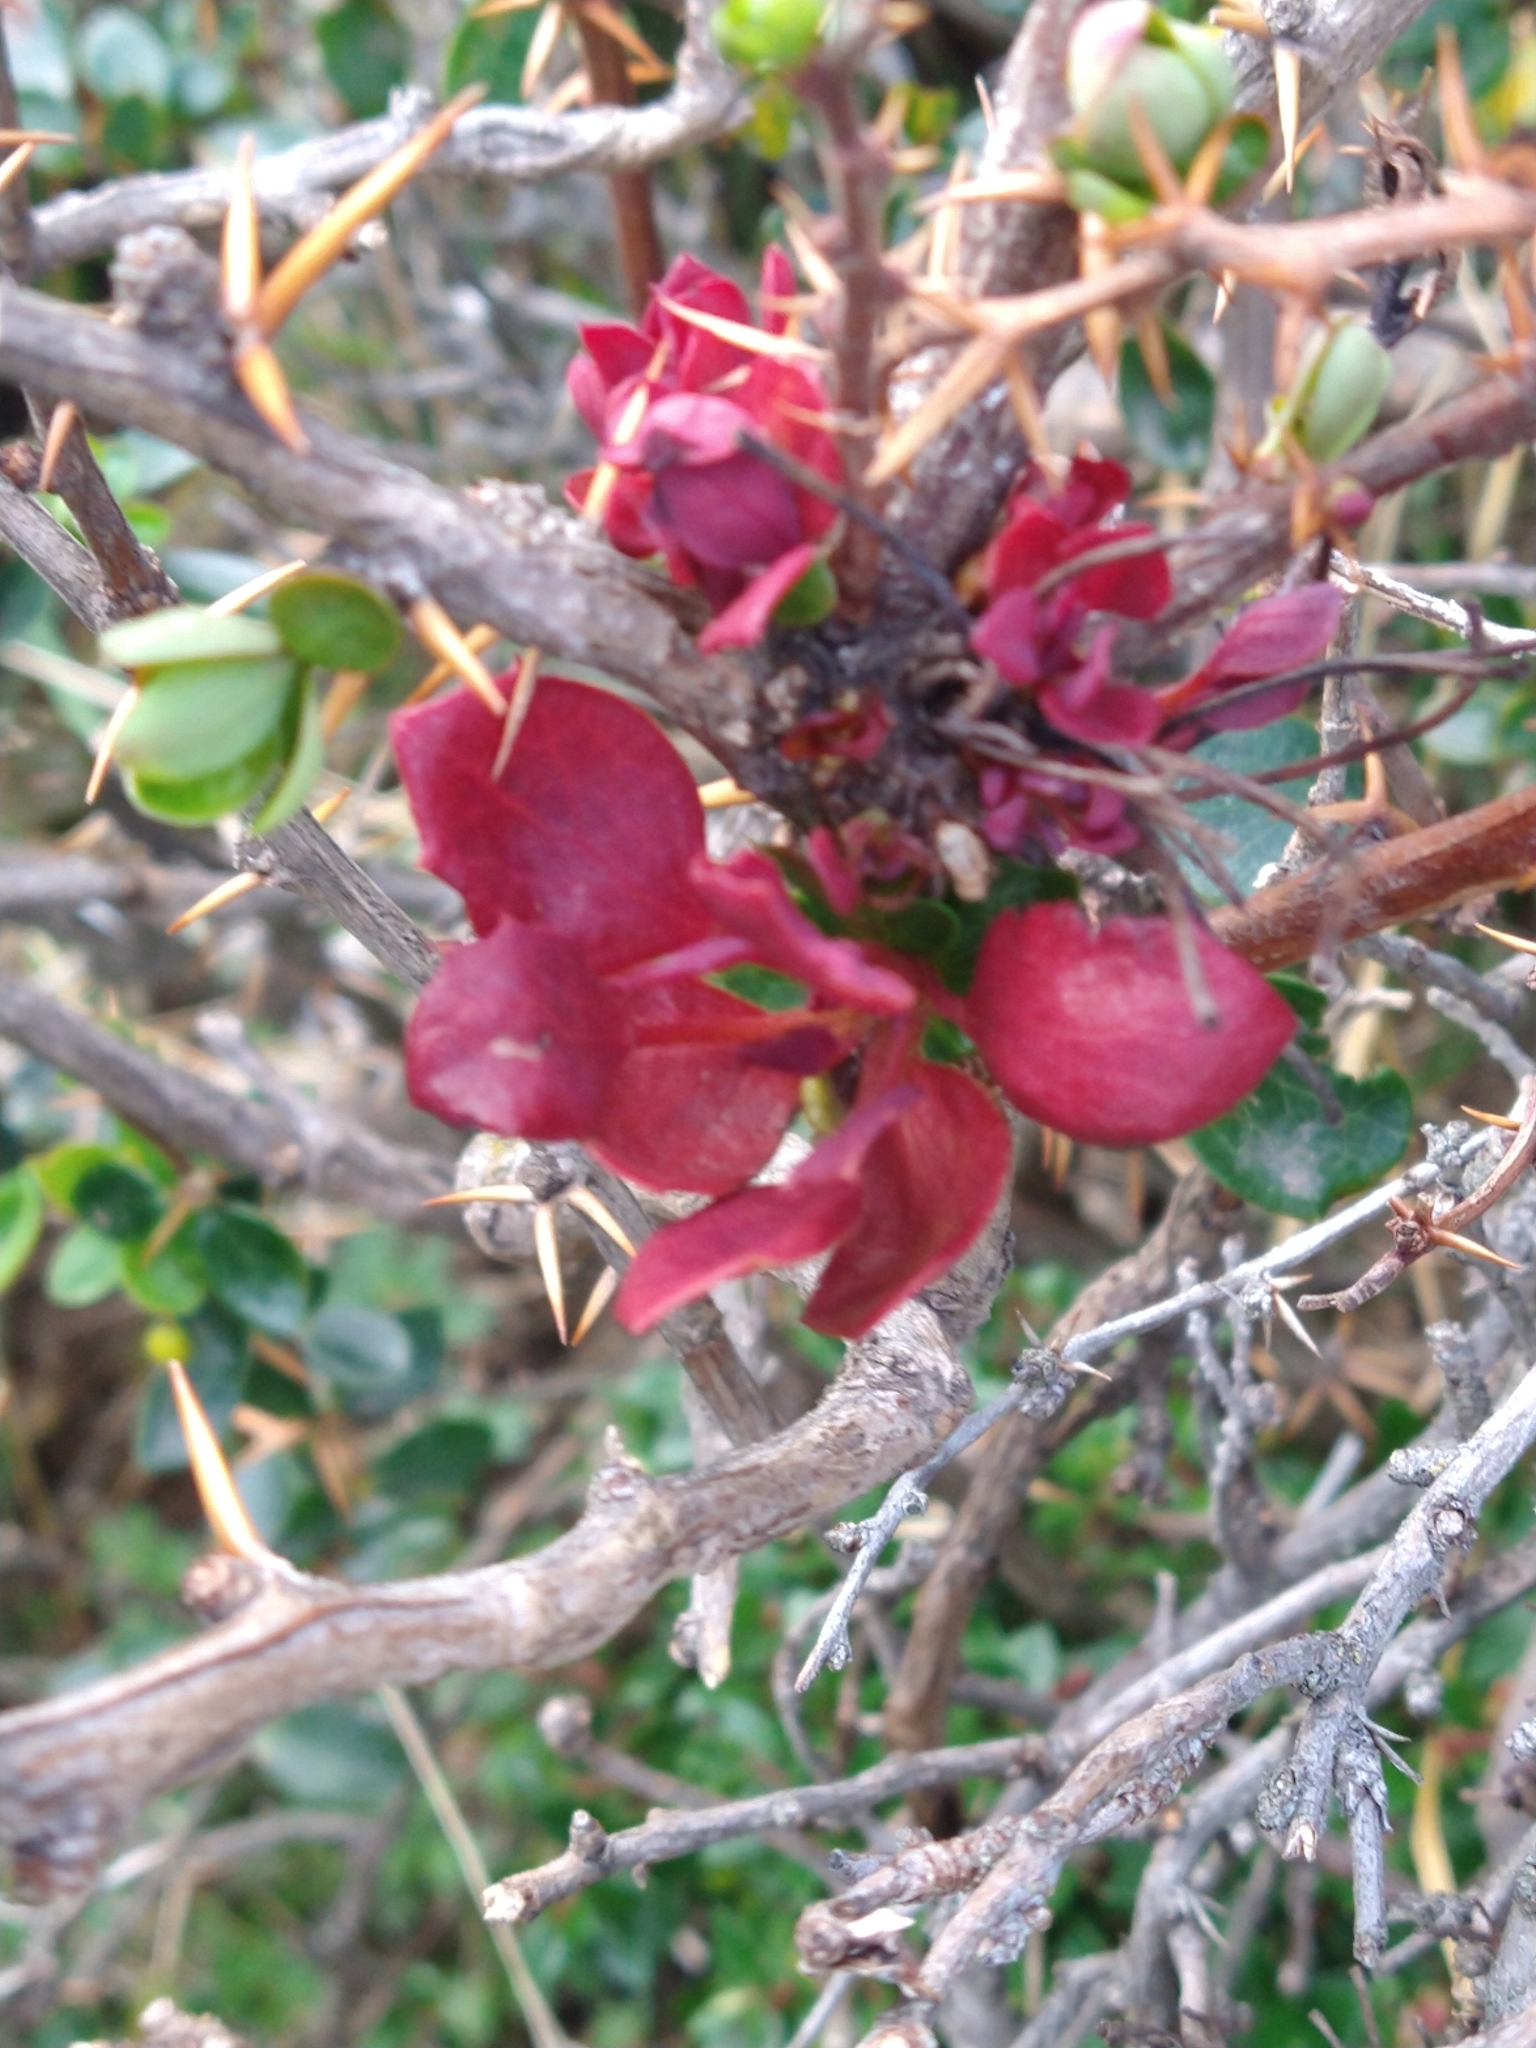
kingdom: Fungi
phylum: Basidiomycota
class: Pucciniomycetes
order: Pucciniales
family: Pucciniaceae
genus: Puccinia
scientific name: Puccinia magellanica
